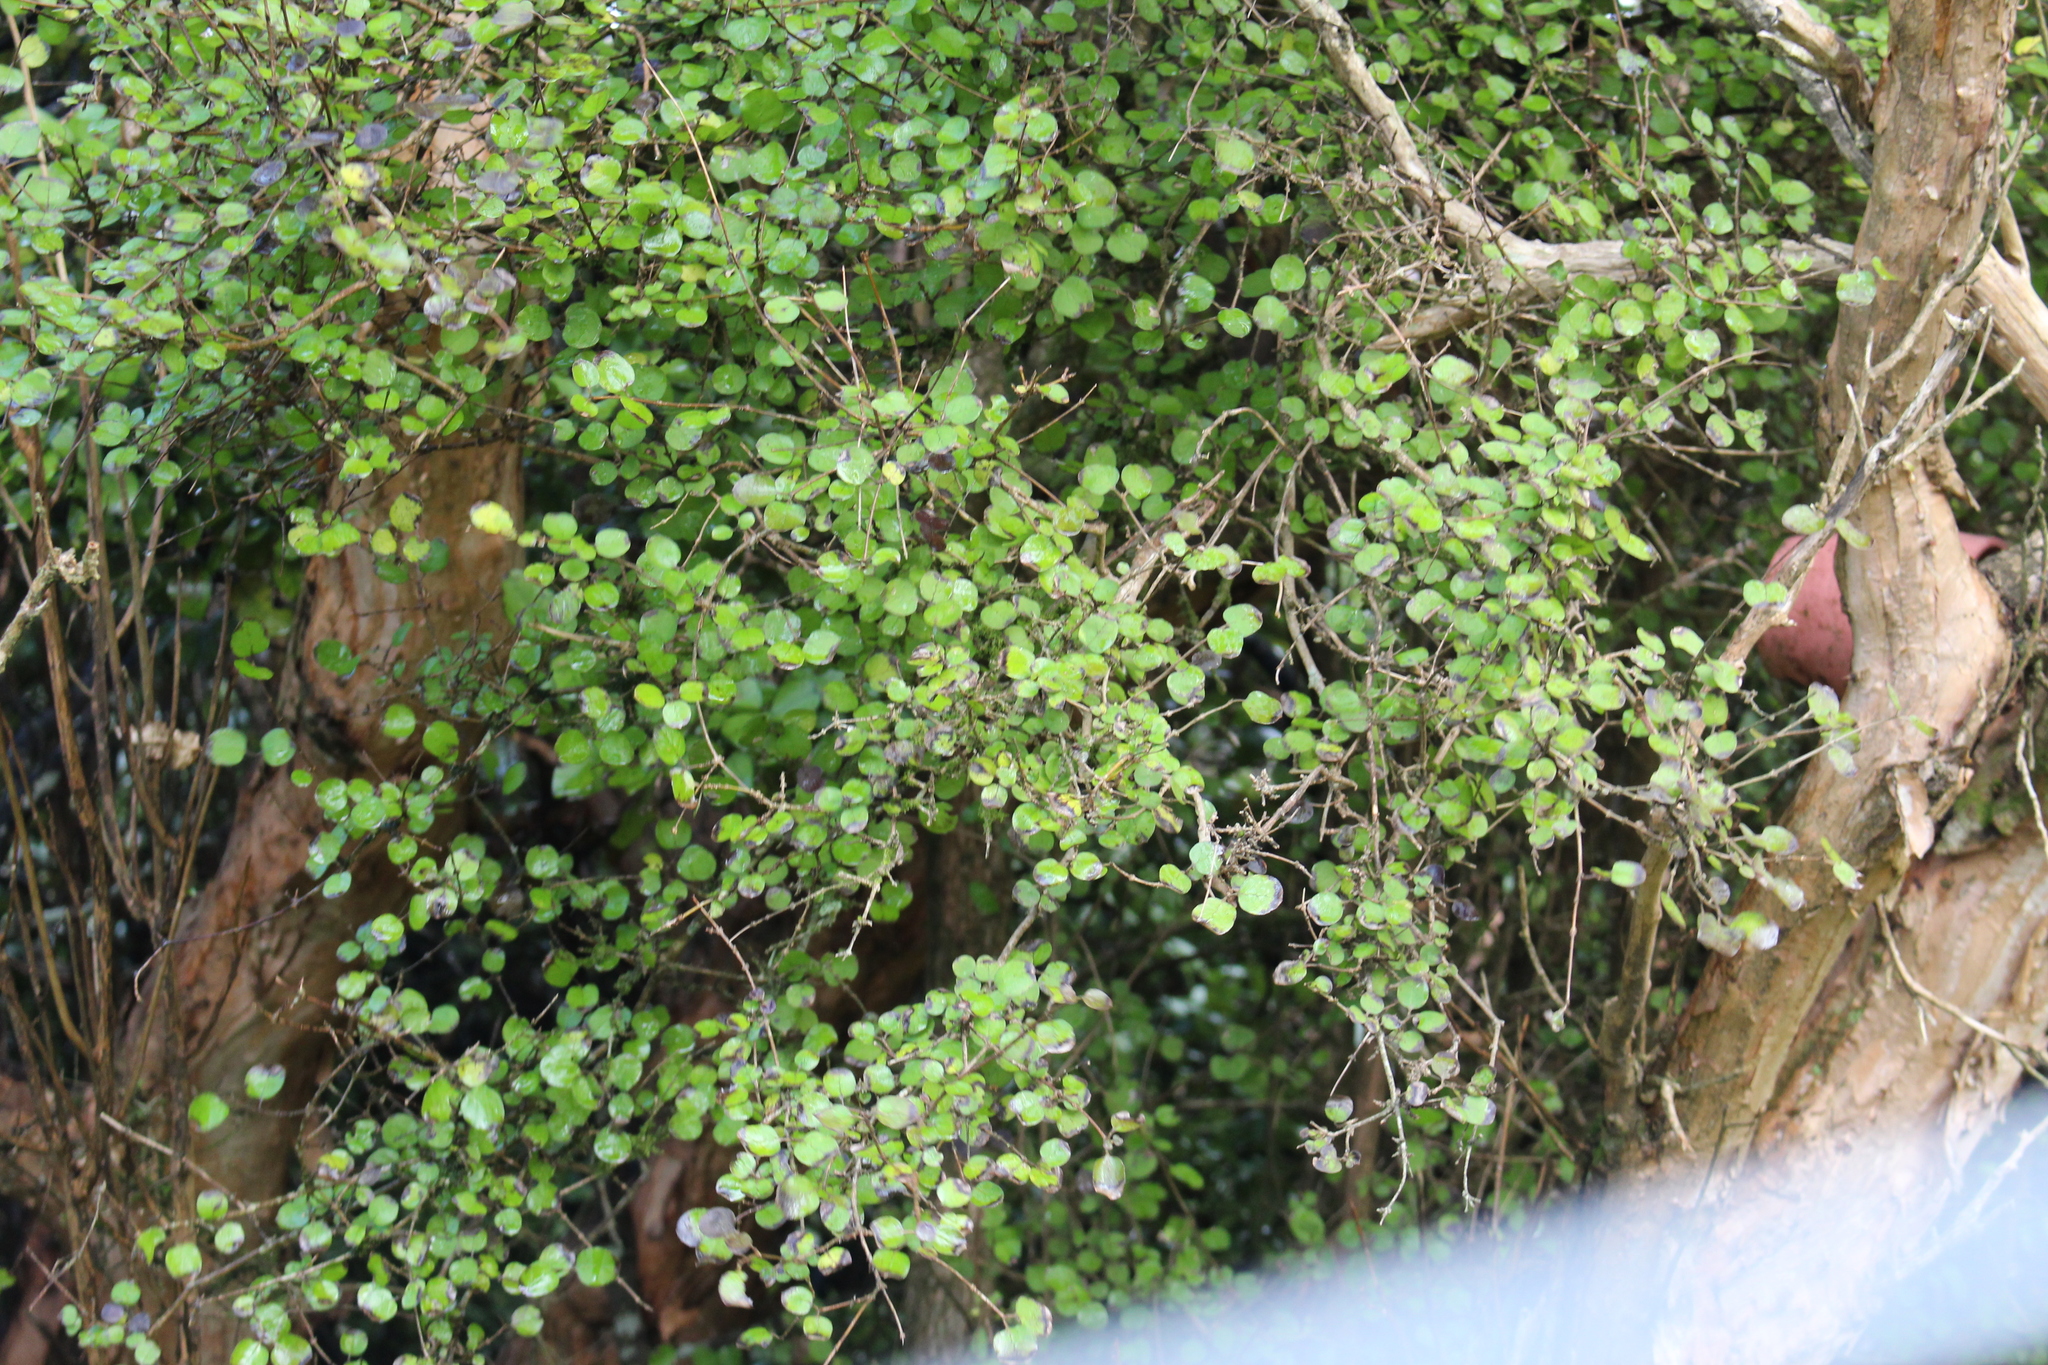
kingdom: Plantae
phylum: Tracheophyta
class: Magnoliopsida
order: Gentianales
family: Rubiaceae
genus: Coprosma
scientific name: Coprosma rotundifolia
